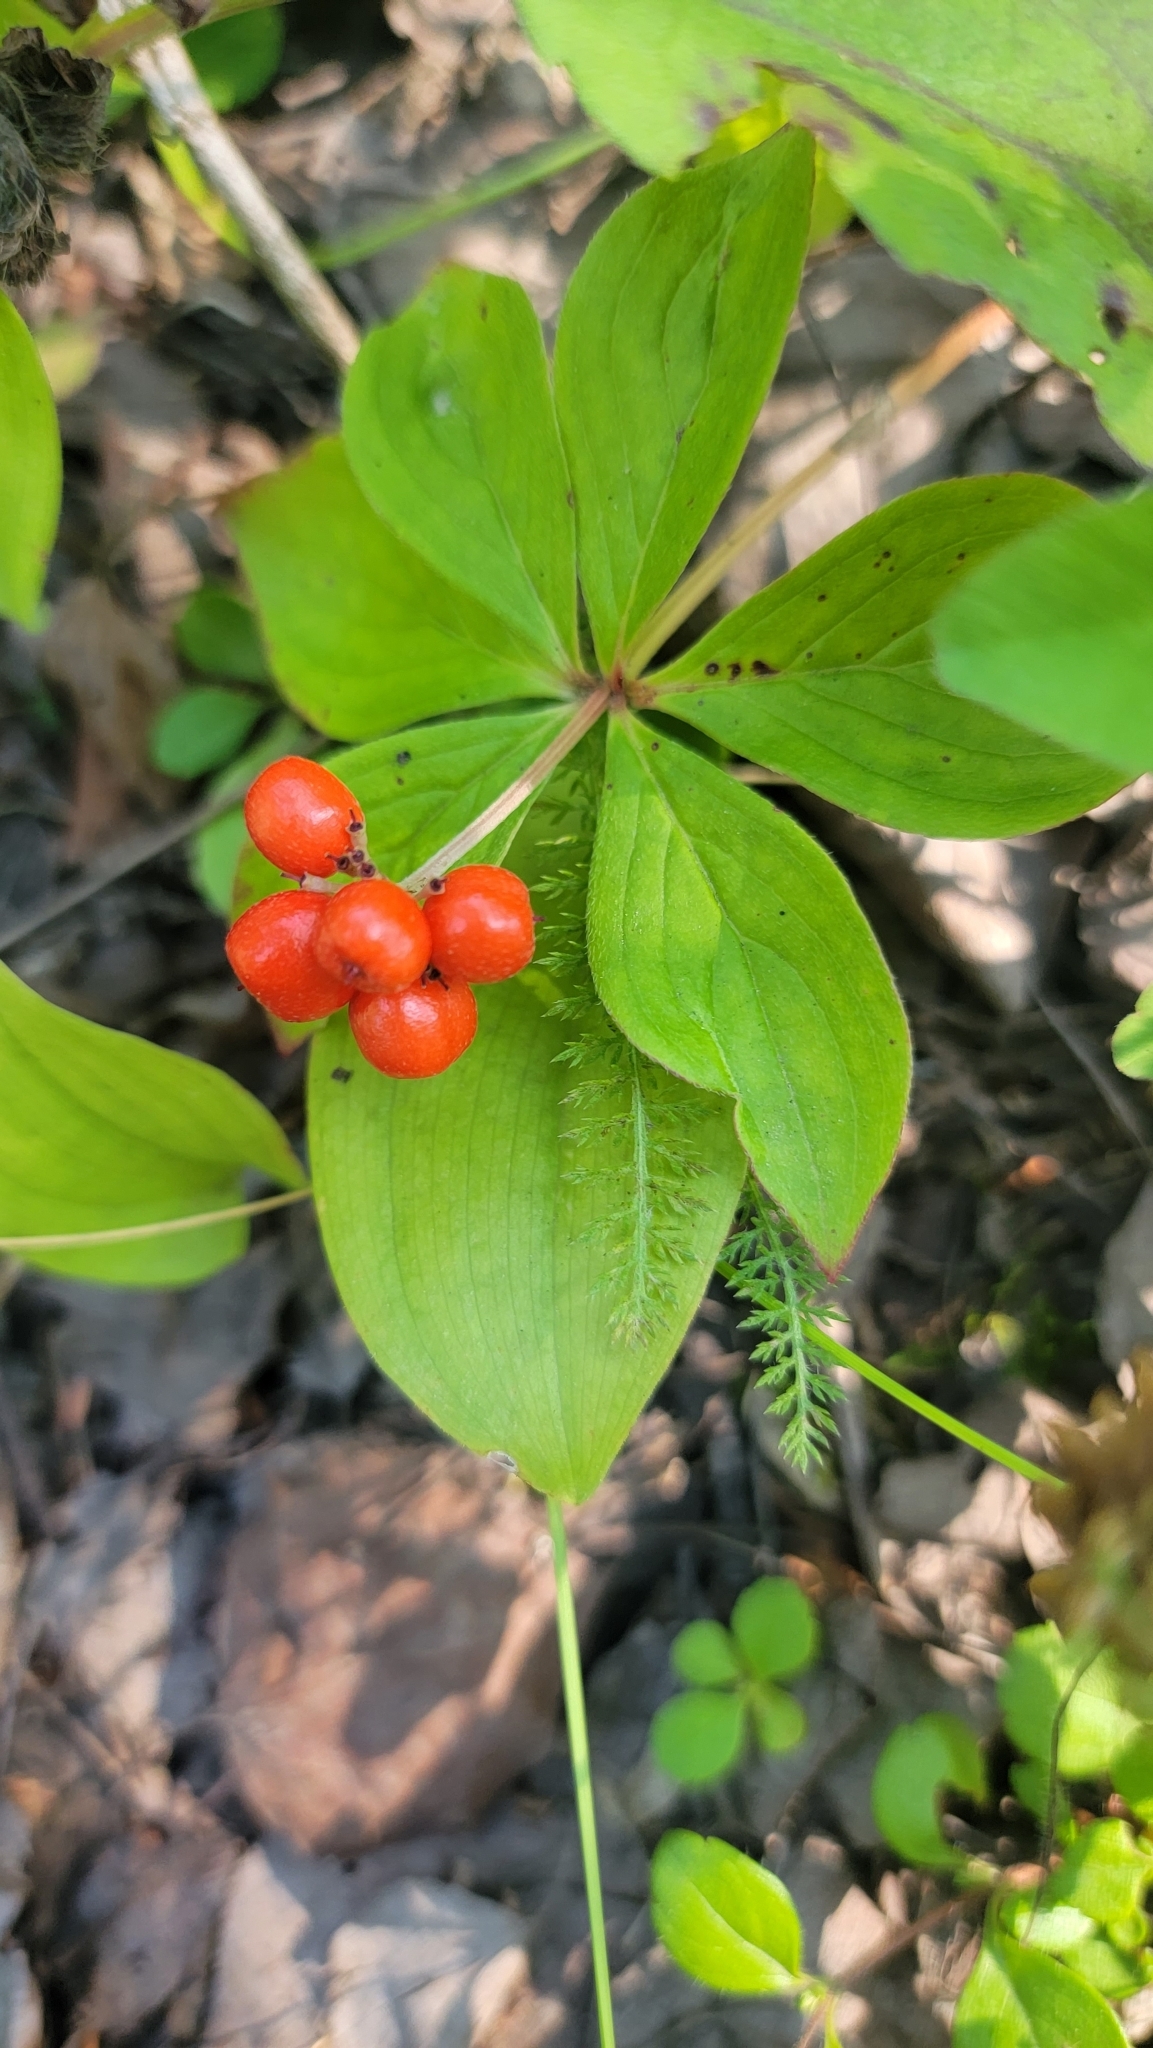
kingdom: Plantae
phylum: Tracheophyta
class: Magnoliopsida
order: Cornales
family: Cornaceae
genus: Cornus
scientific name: Cornus canadensis
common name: Creeping dogwood
